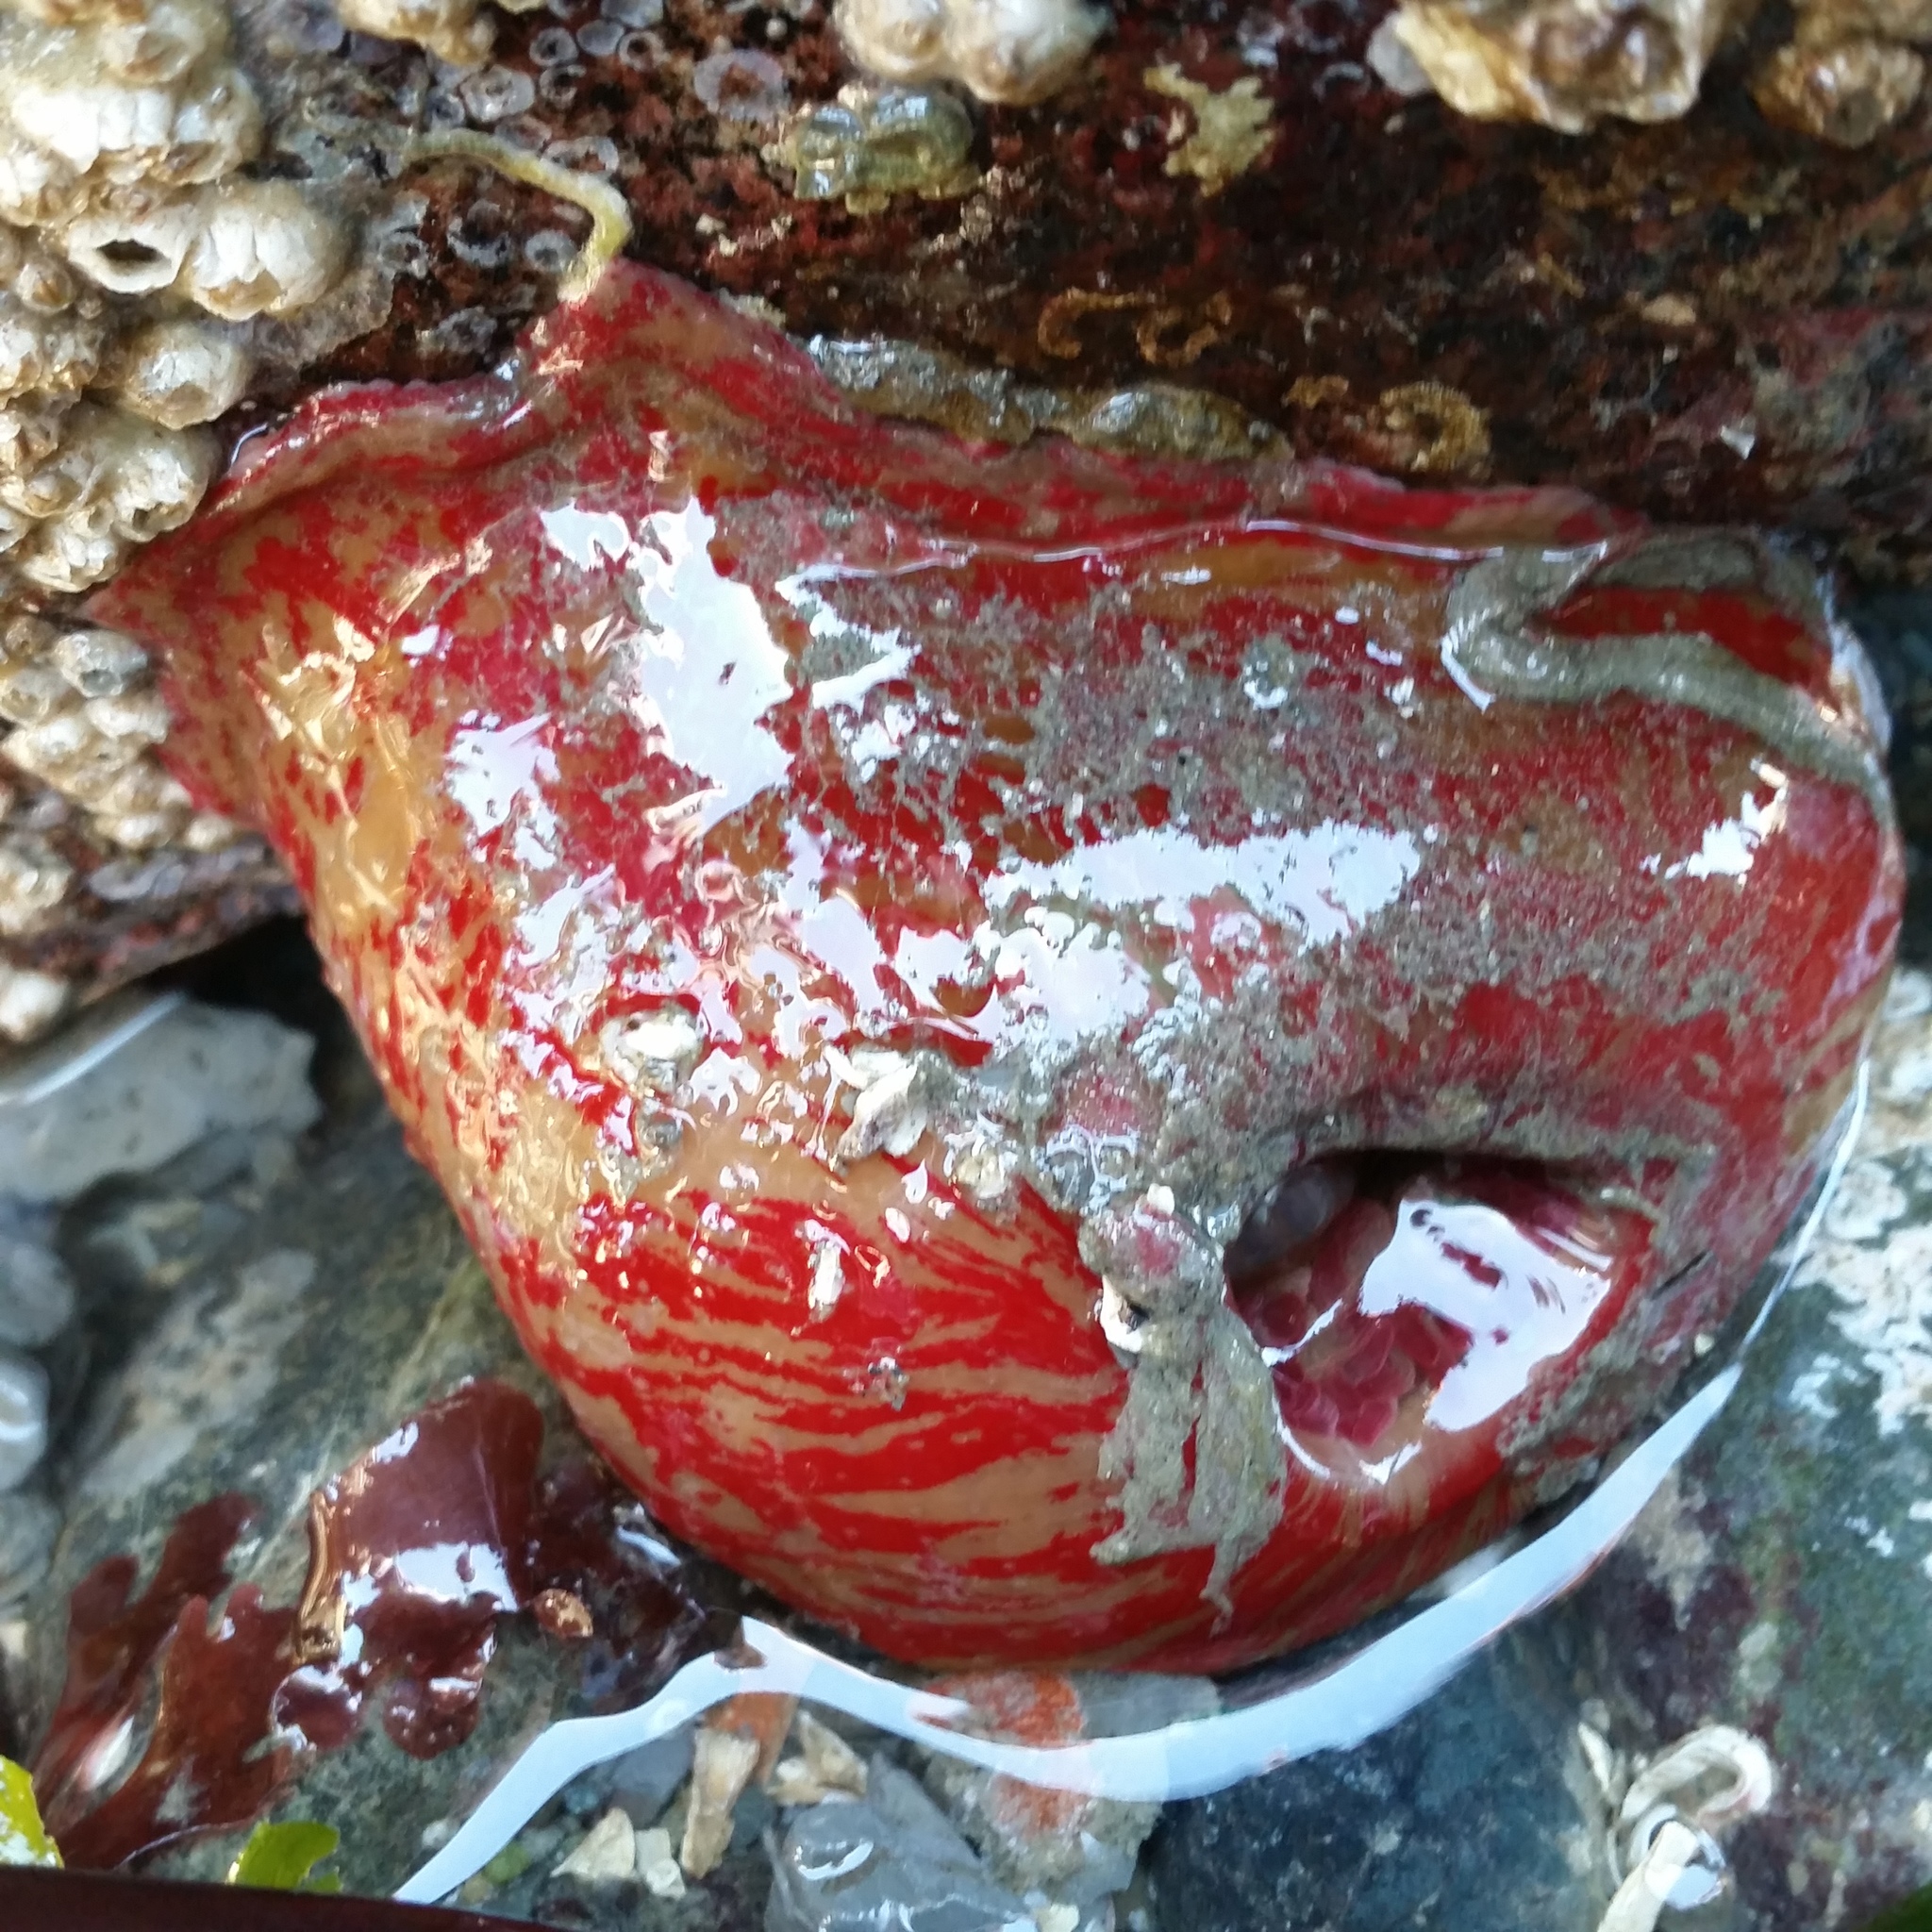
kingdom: Animalia
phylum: Cnidaria
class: Anthozoa
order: Actiniaria
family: Actiniidae
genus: Urticina
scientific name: Urticina grebelnyi
